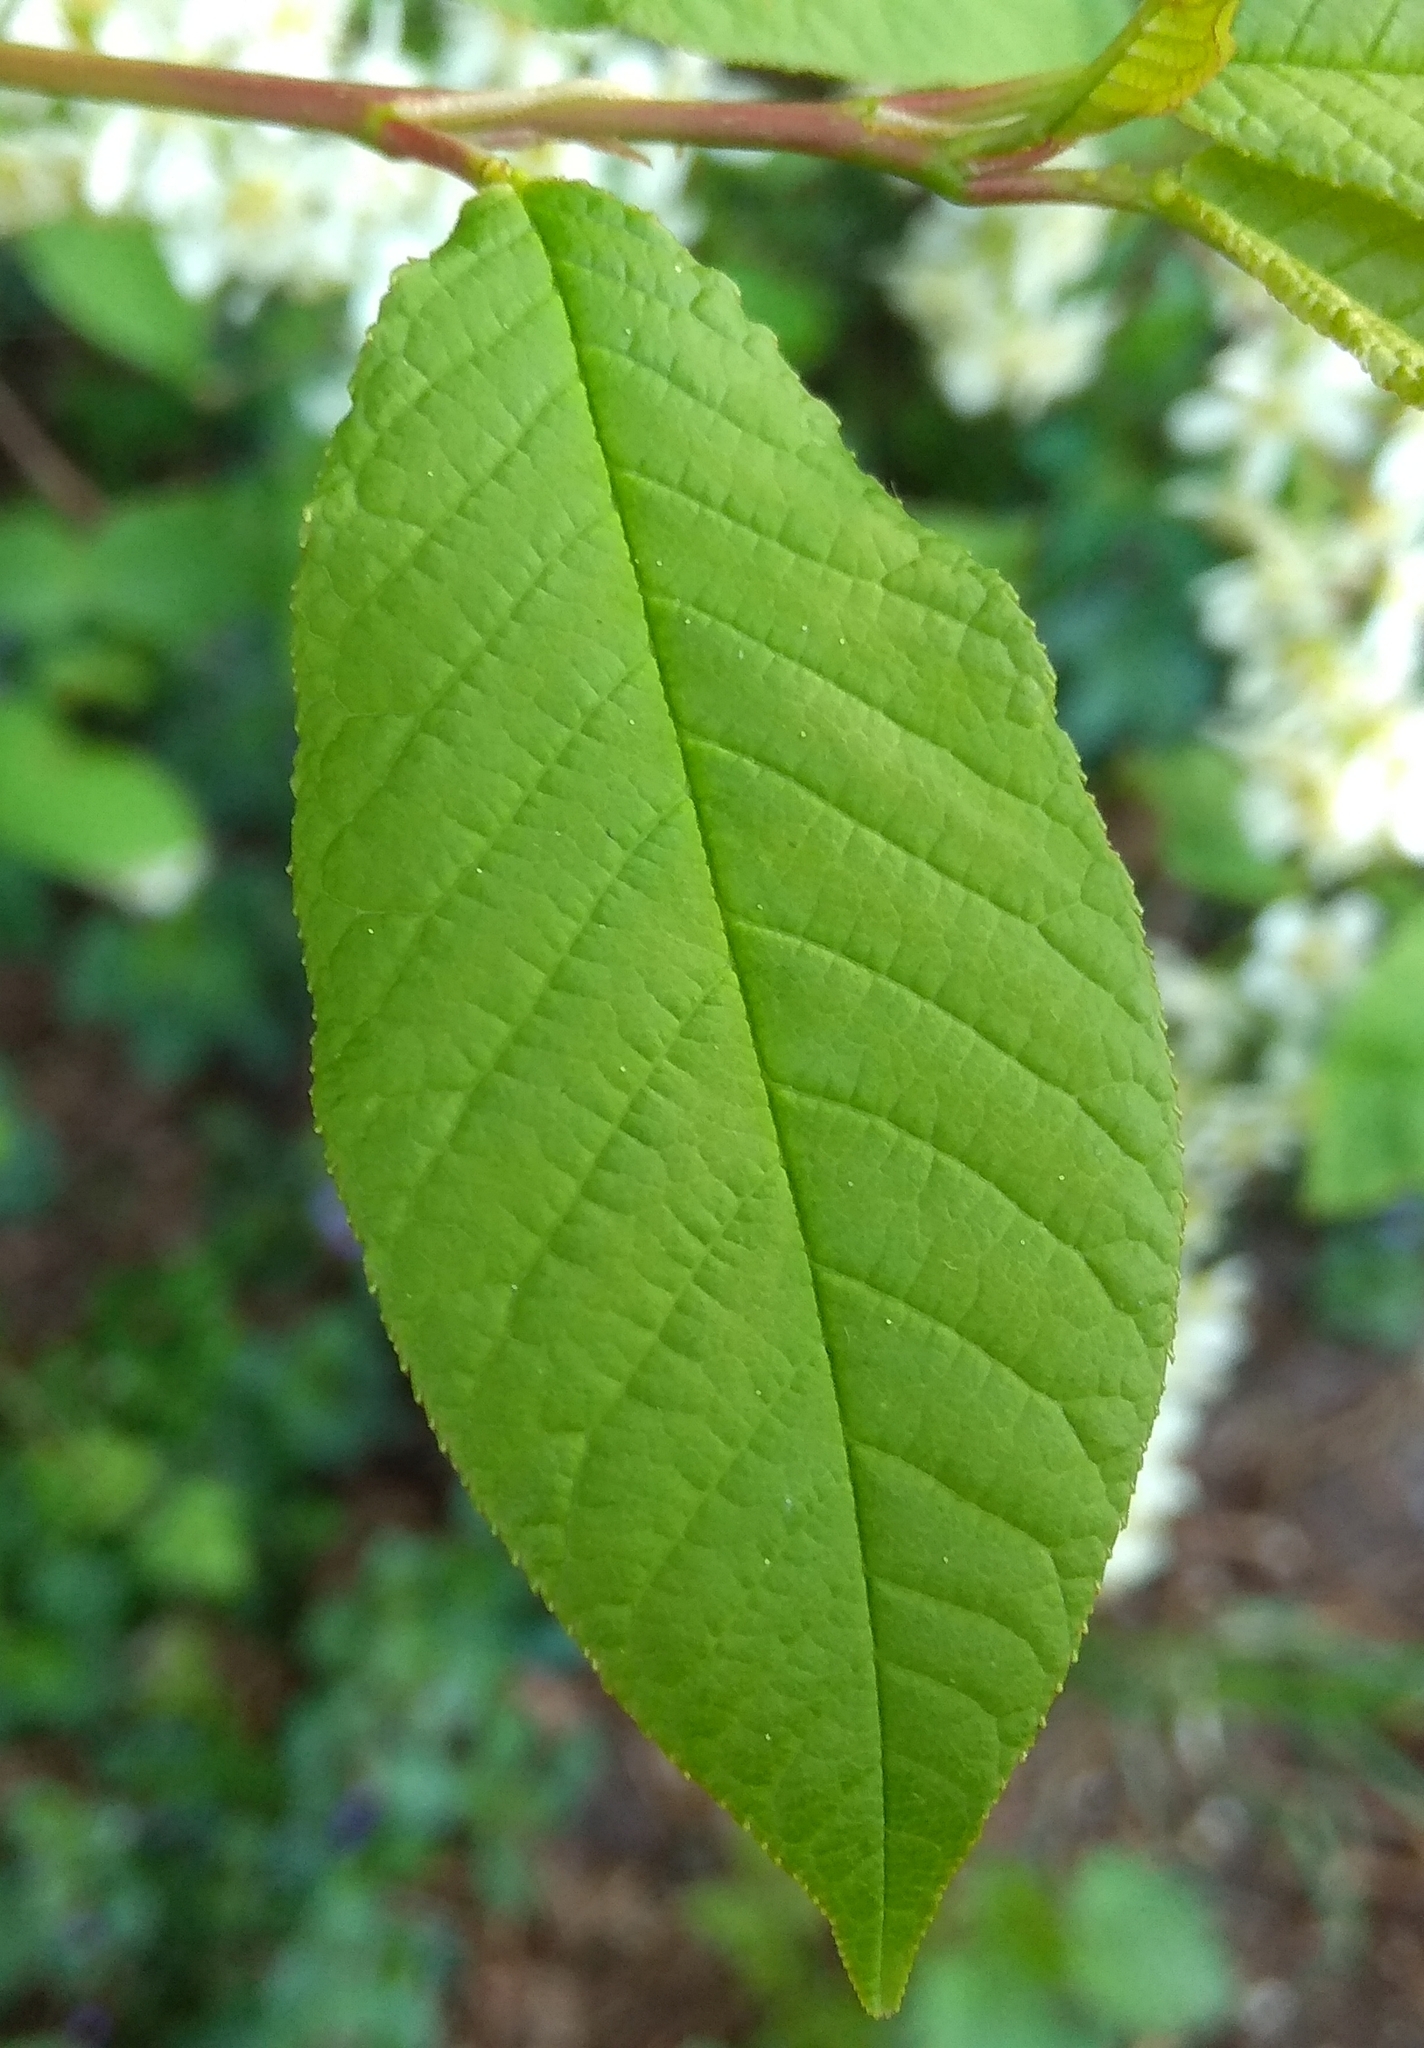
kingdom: Plantae
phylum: Tracheophyta
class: Magnoliopsida
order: Rosales
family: Rosaceae
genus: Prunus
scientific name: Prunus padus
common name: Bird cherry
